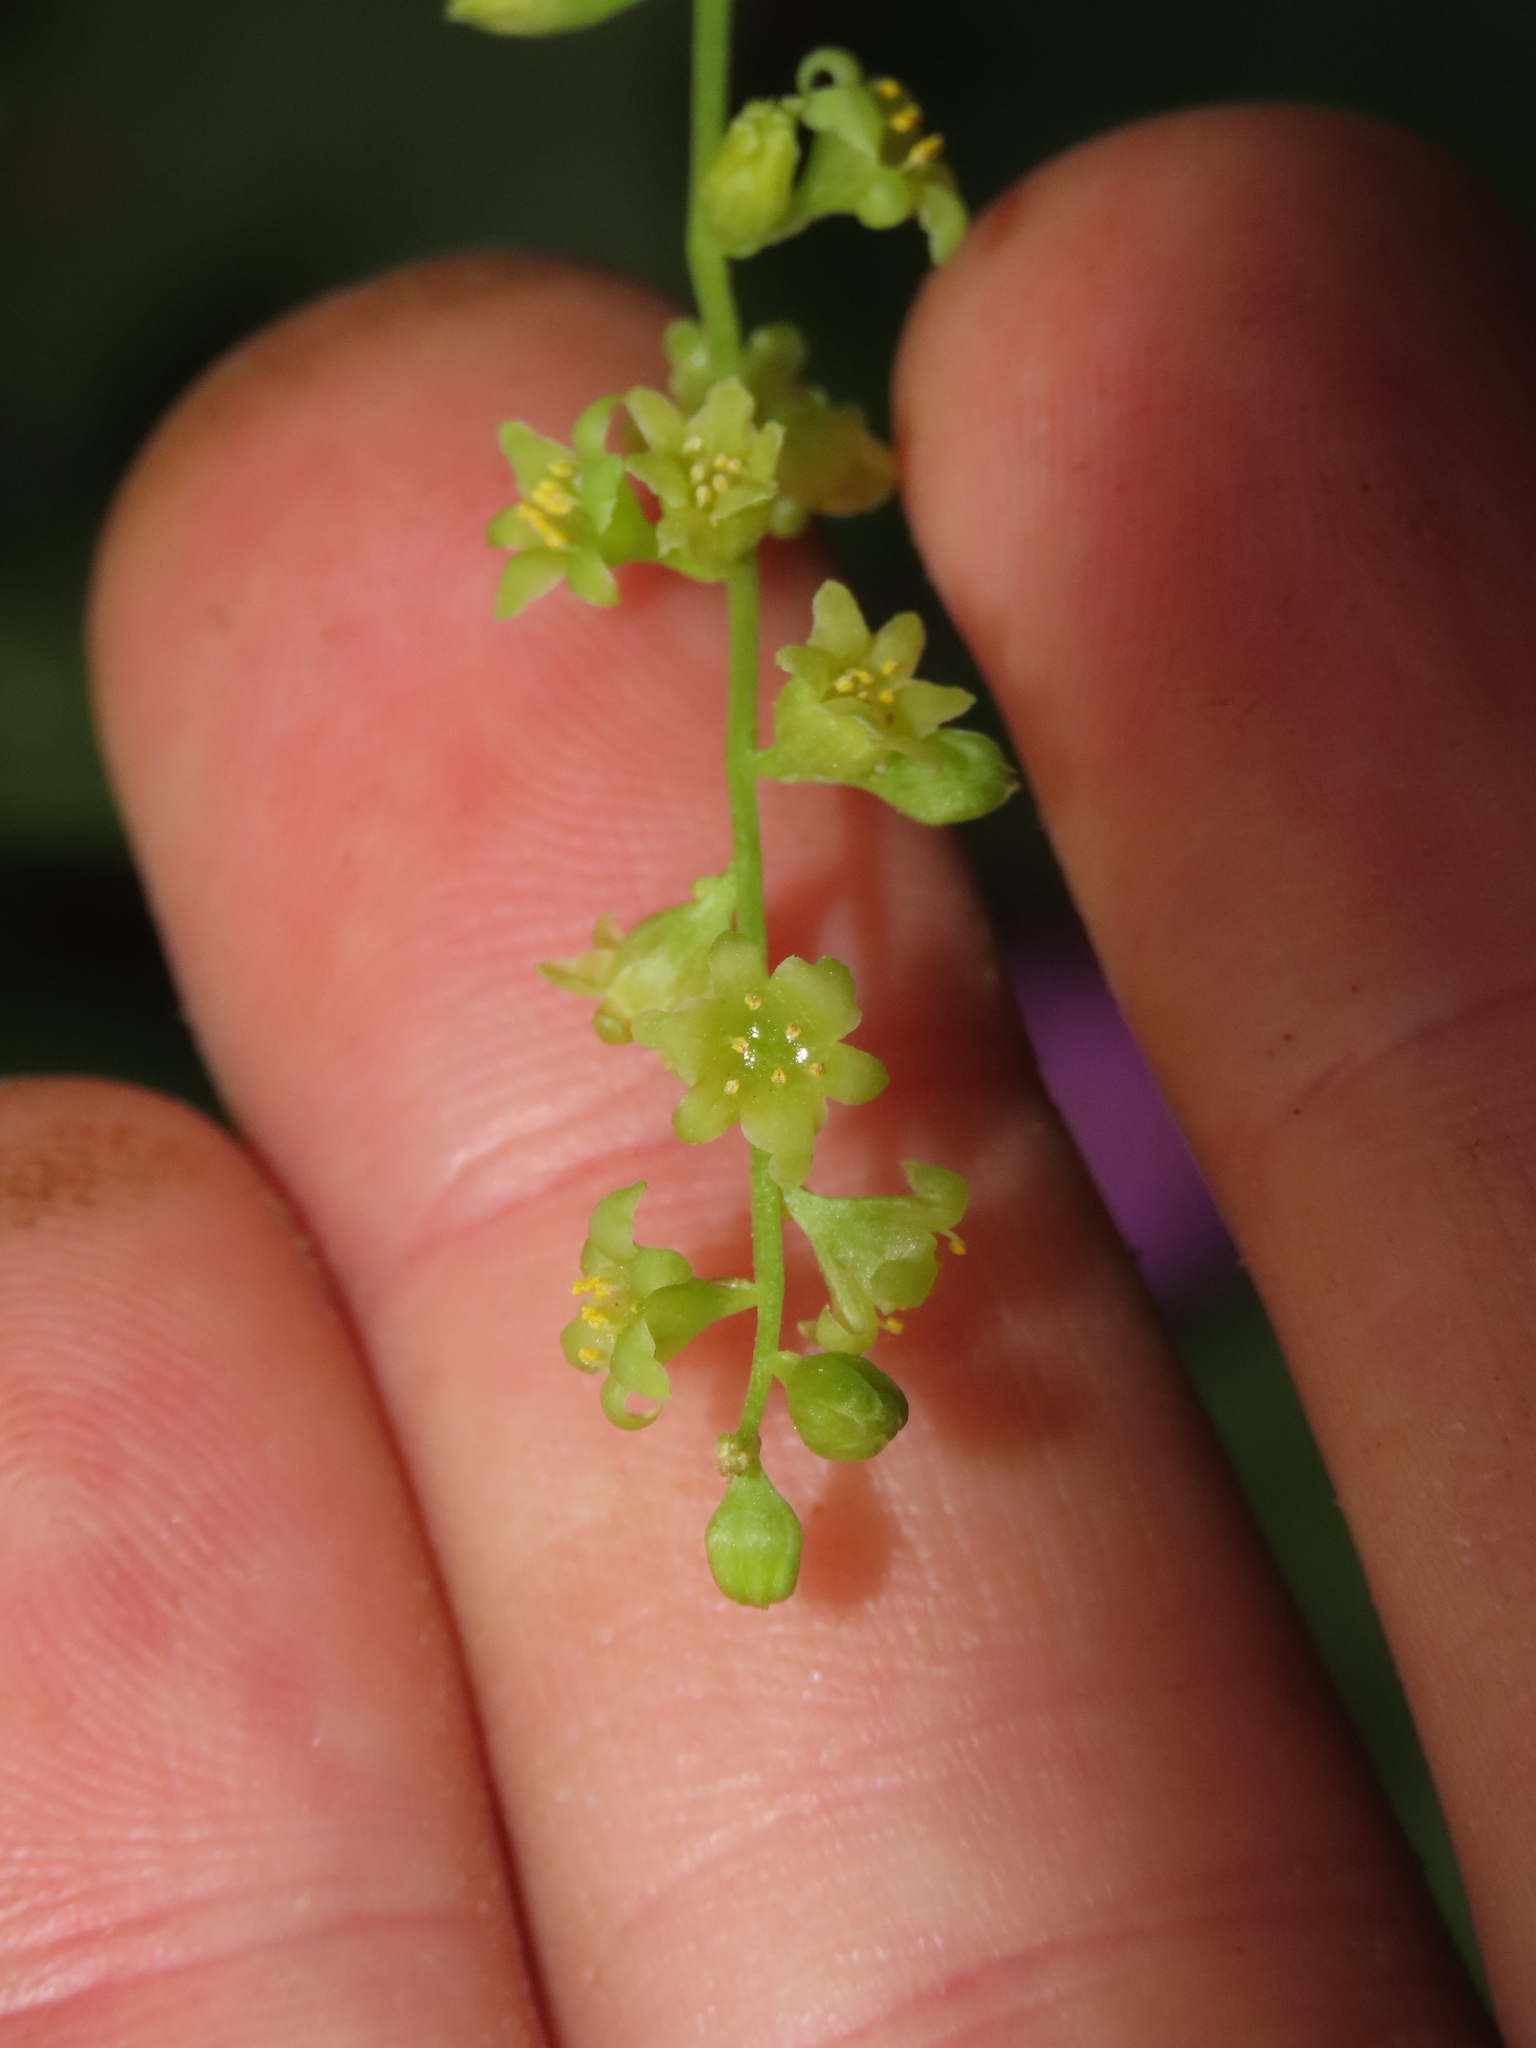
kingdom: Plantae
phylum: Tracheophyta
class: Liliopsida
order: Dioscoreales
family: Dioscoreaceae
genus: Dioscorea
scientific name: Dioscorea bryoniifolia
